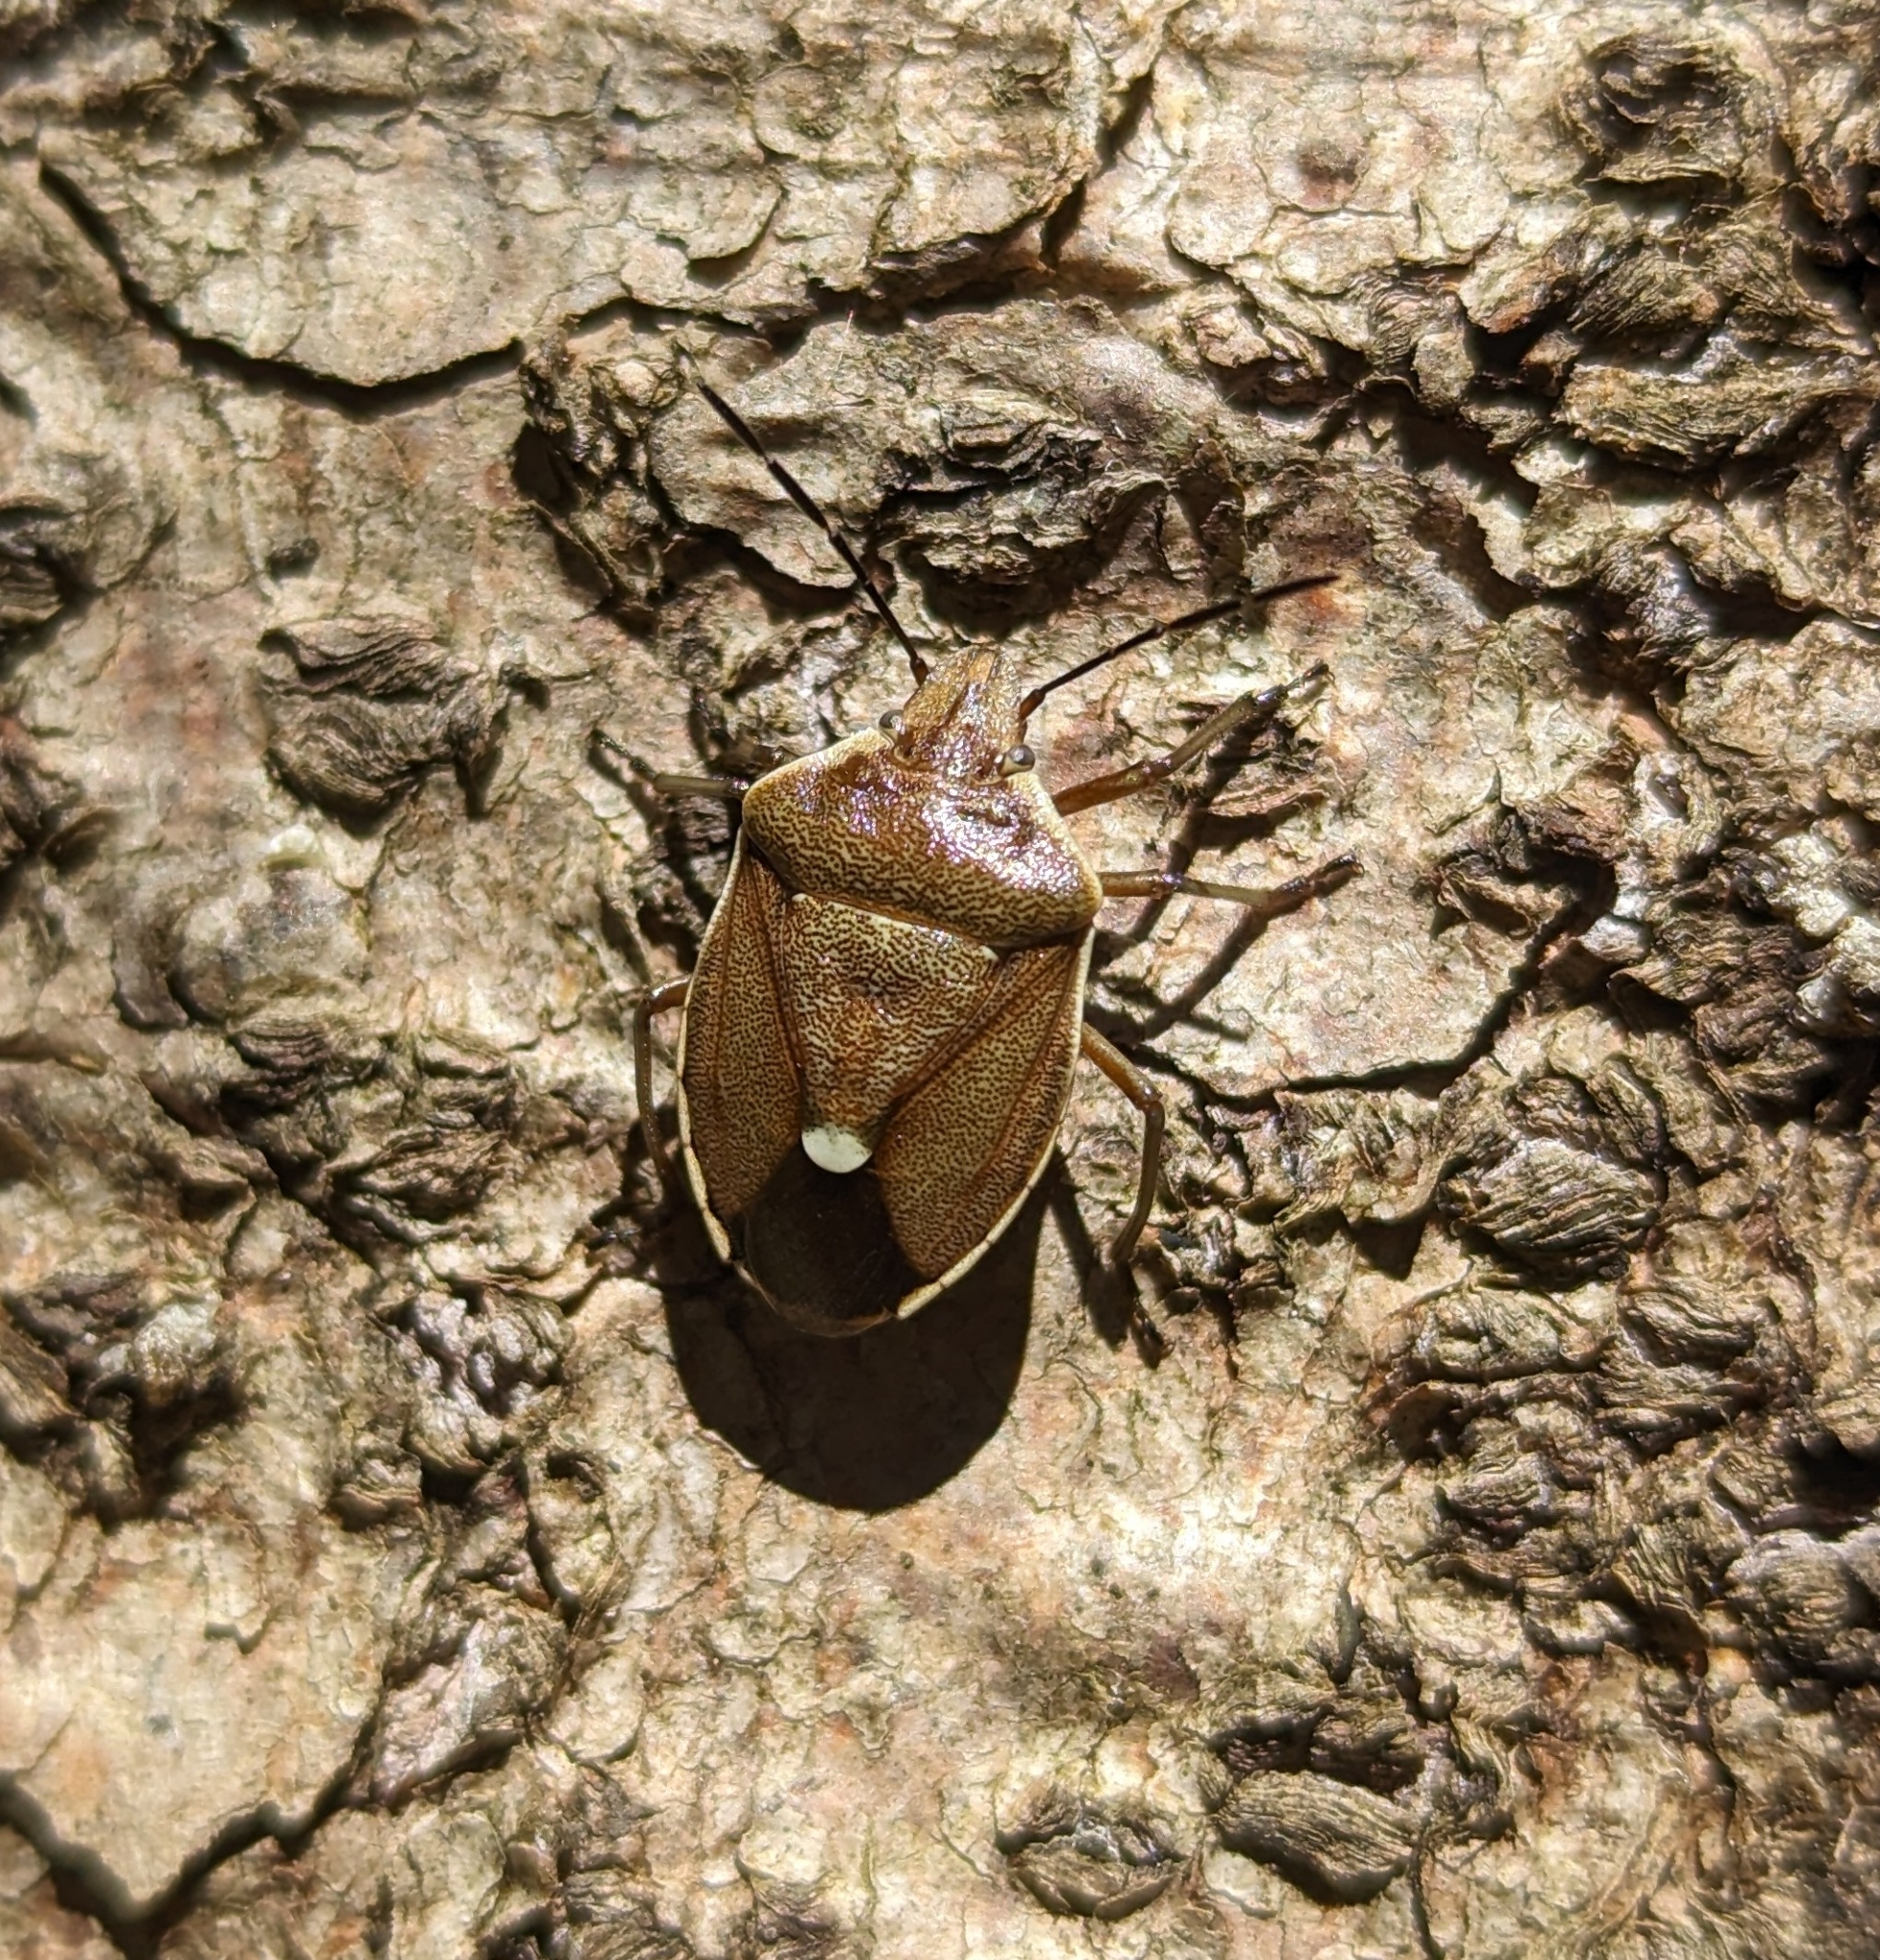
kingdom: Animalia
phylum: Arthropoda
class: Insecta
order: Hemiptera
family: Pentatomidae
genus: Chlorochroa
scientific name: Chlorochroa pinicola
